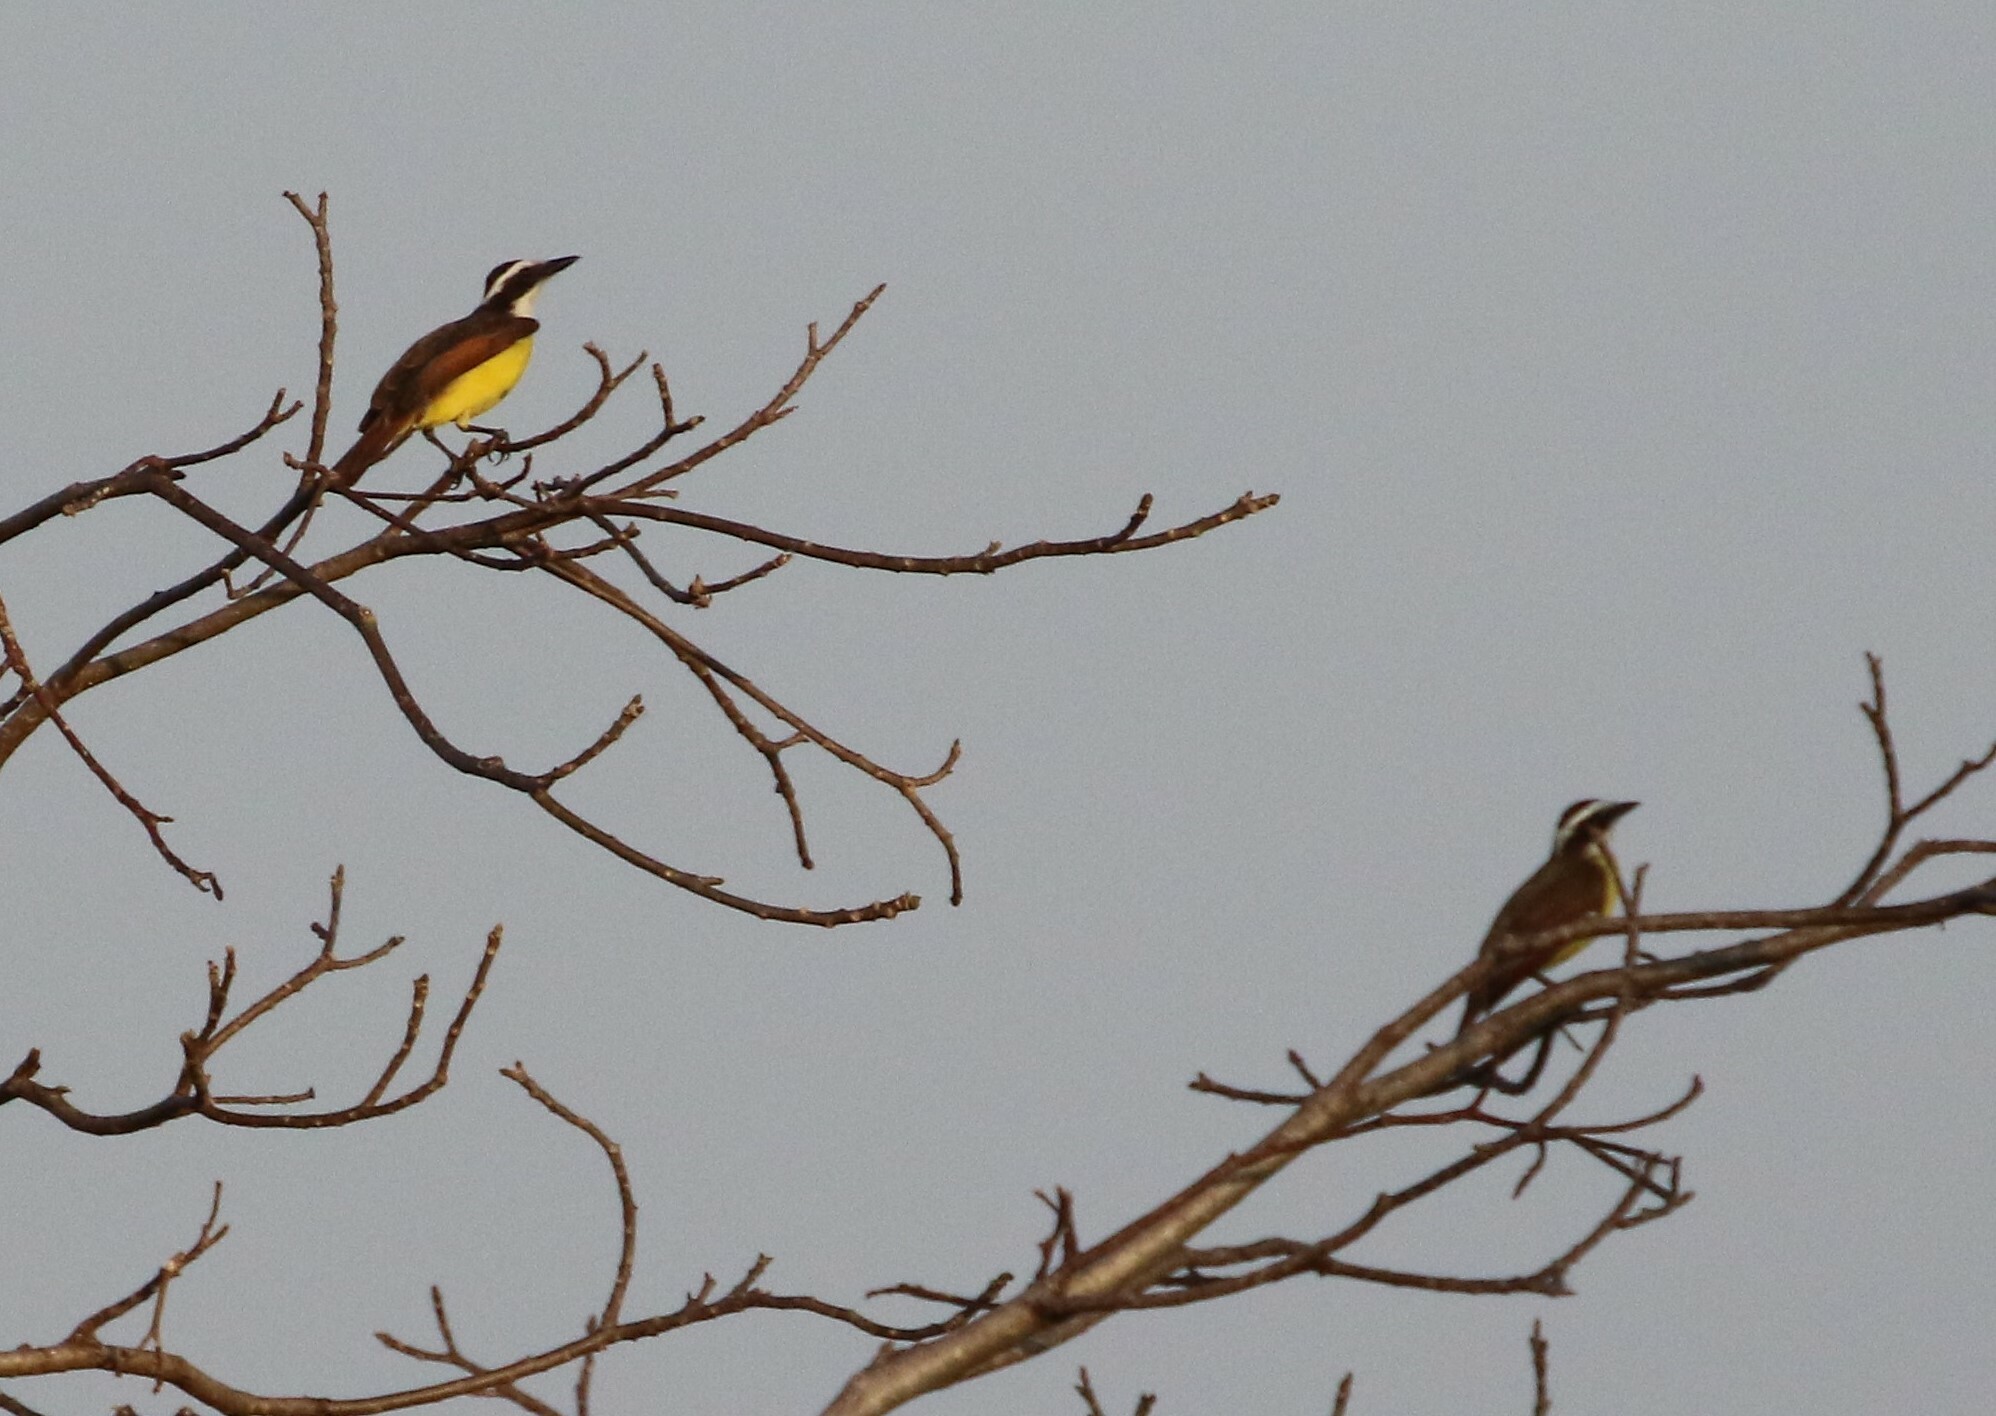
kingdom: Animalia
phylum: Chordata
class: Aves
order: Passeriformes
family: Tyrannidae
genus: Pitangus
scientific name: Pitangus sulphuratus
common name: Great kiskadee
